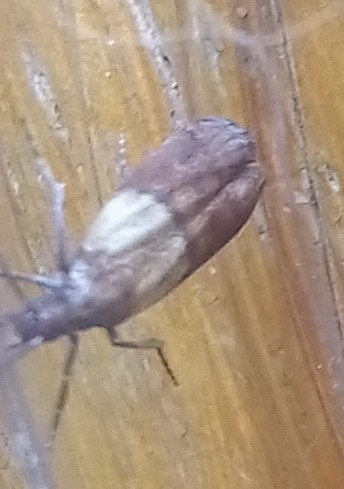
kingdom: Animalia
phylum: Arthropoda
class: Insecta
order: Lepidoptera
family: Pyralidae
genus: Plodia
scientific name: Plodia interpunctella
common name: Indian meal moth
